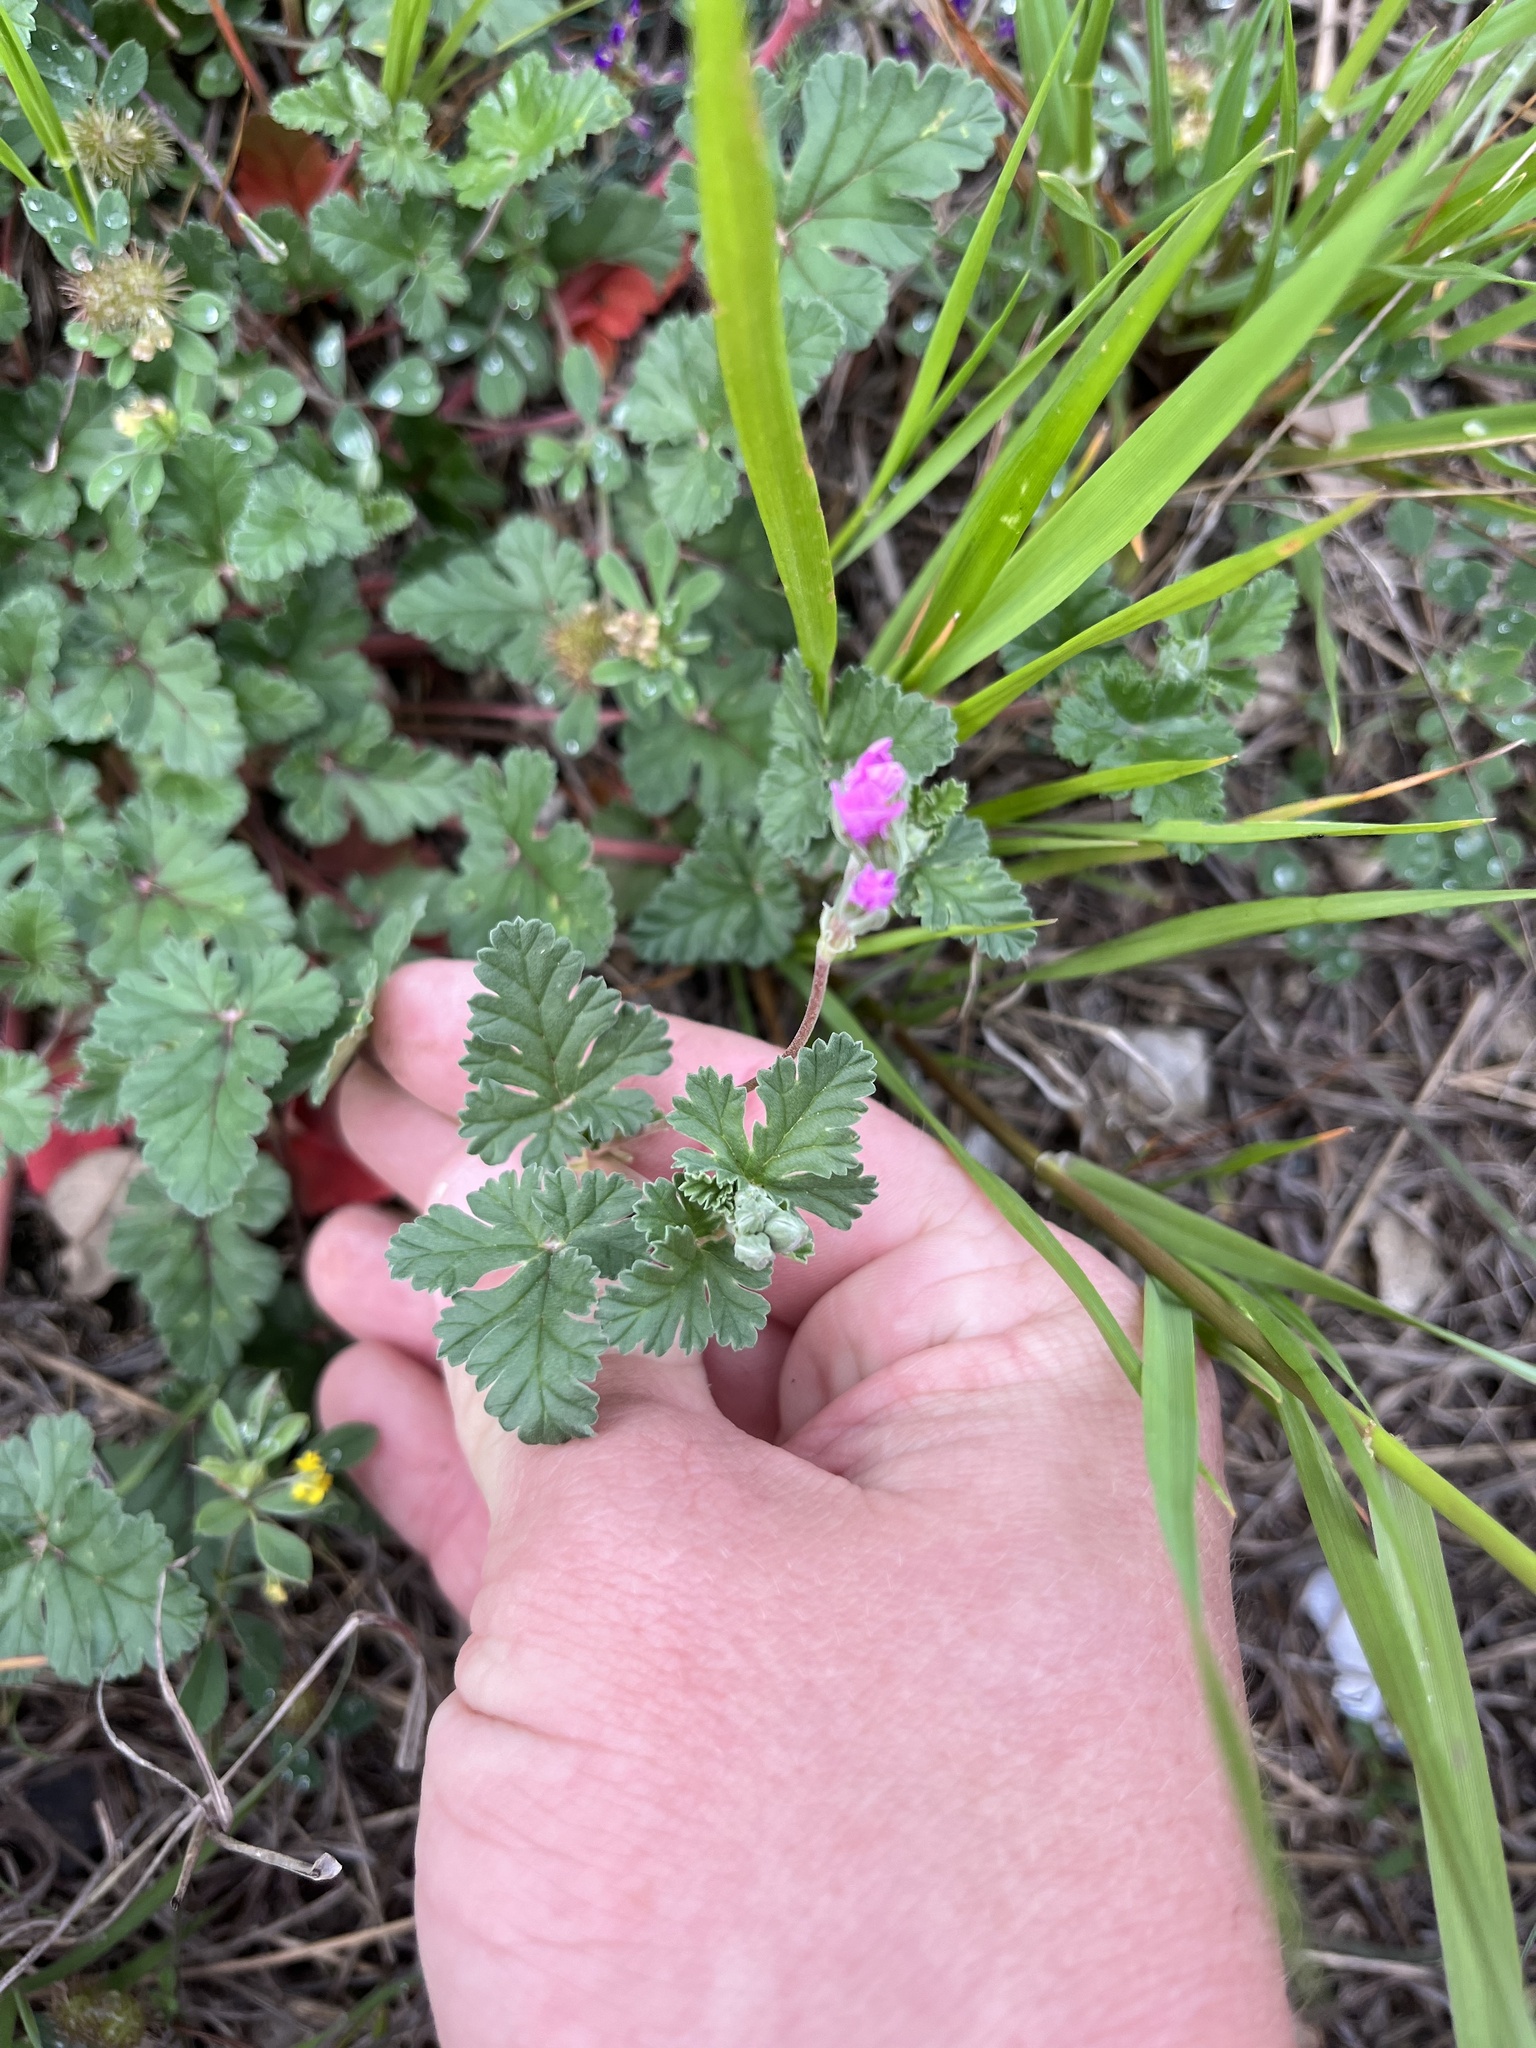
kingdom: Plantae
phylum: Tracheophyta
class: Magnoliopsida
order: Geraniales
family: Geraniaceae
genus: Erodium
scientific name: Erodium texanum
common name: Texas stork's-bill
